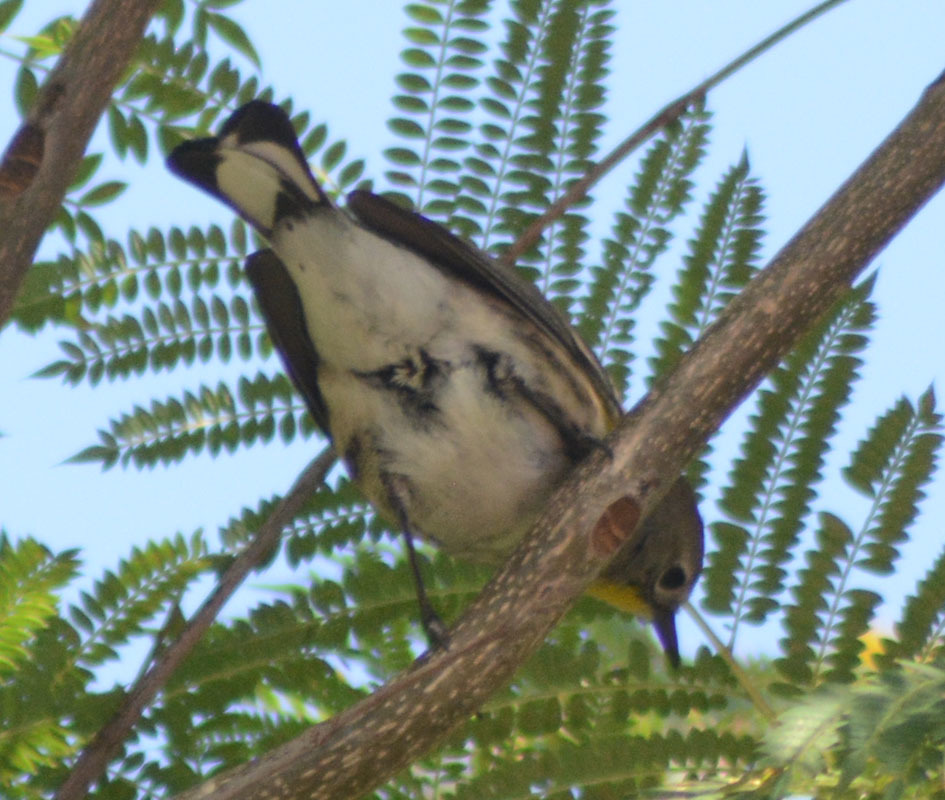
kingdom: Animalia
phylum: Chordata
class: Aves
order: Passeriformes
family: Parulidae
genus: Setophaga
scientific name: Setophaga auduboni
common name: Audubon's warbler
